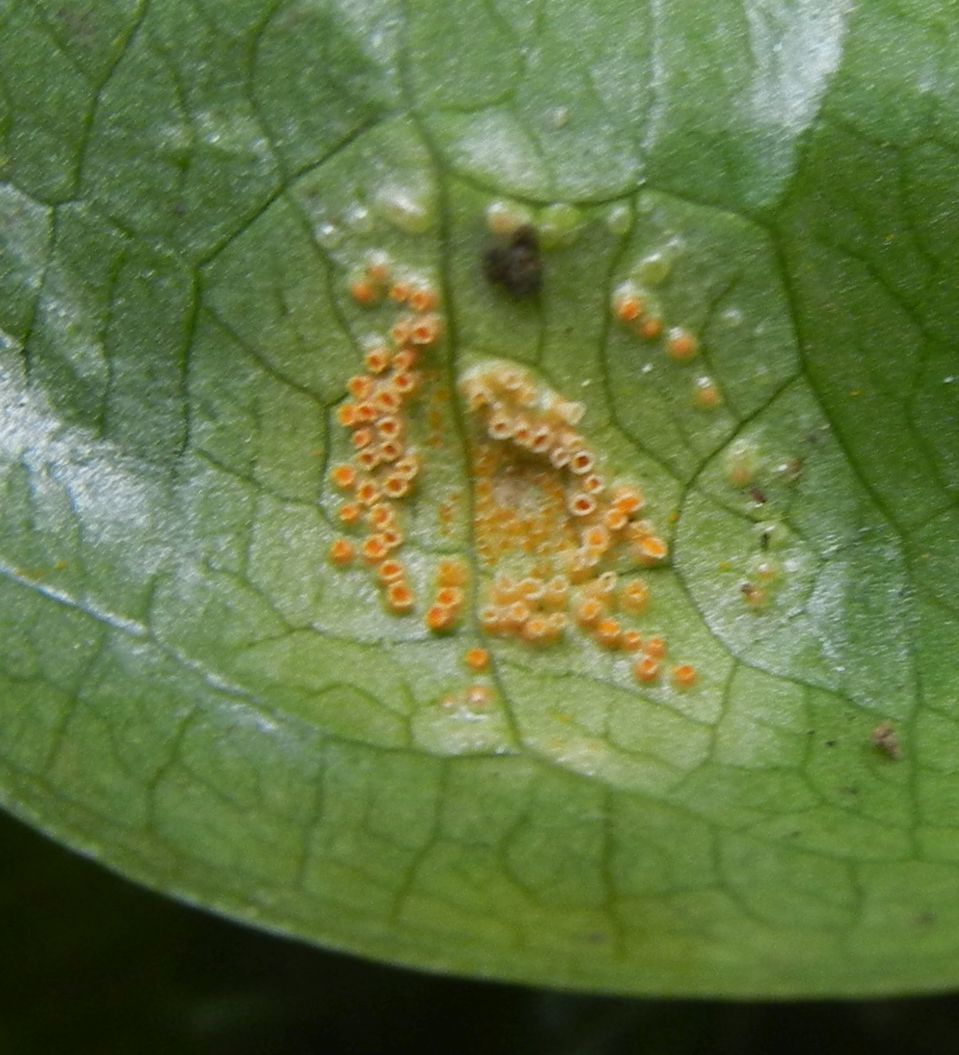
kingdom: Fungi
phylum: Basidiomycota
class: Pucciniomycetes
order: Pucciniales
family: Pucciniaceae
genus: Puccinia
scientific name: Puccinia sessilis
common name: Arum rust
